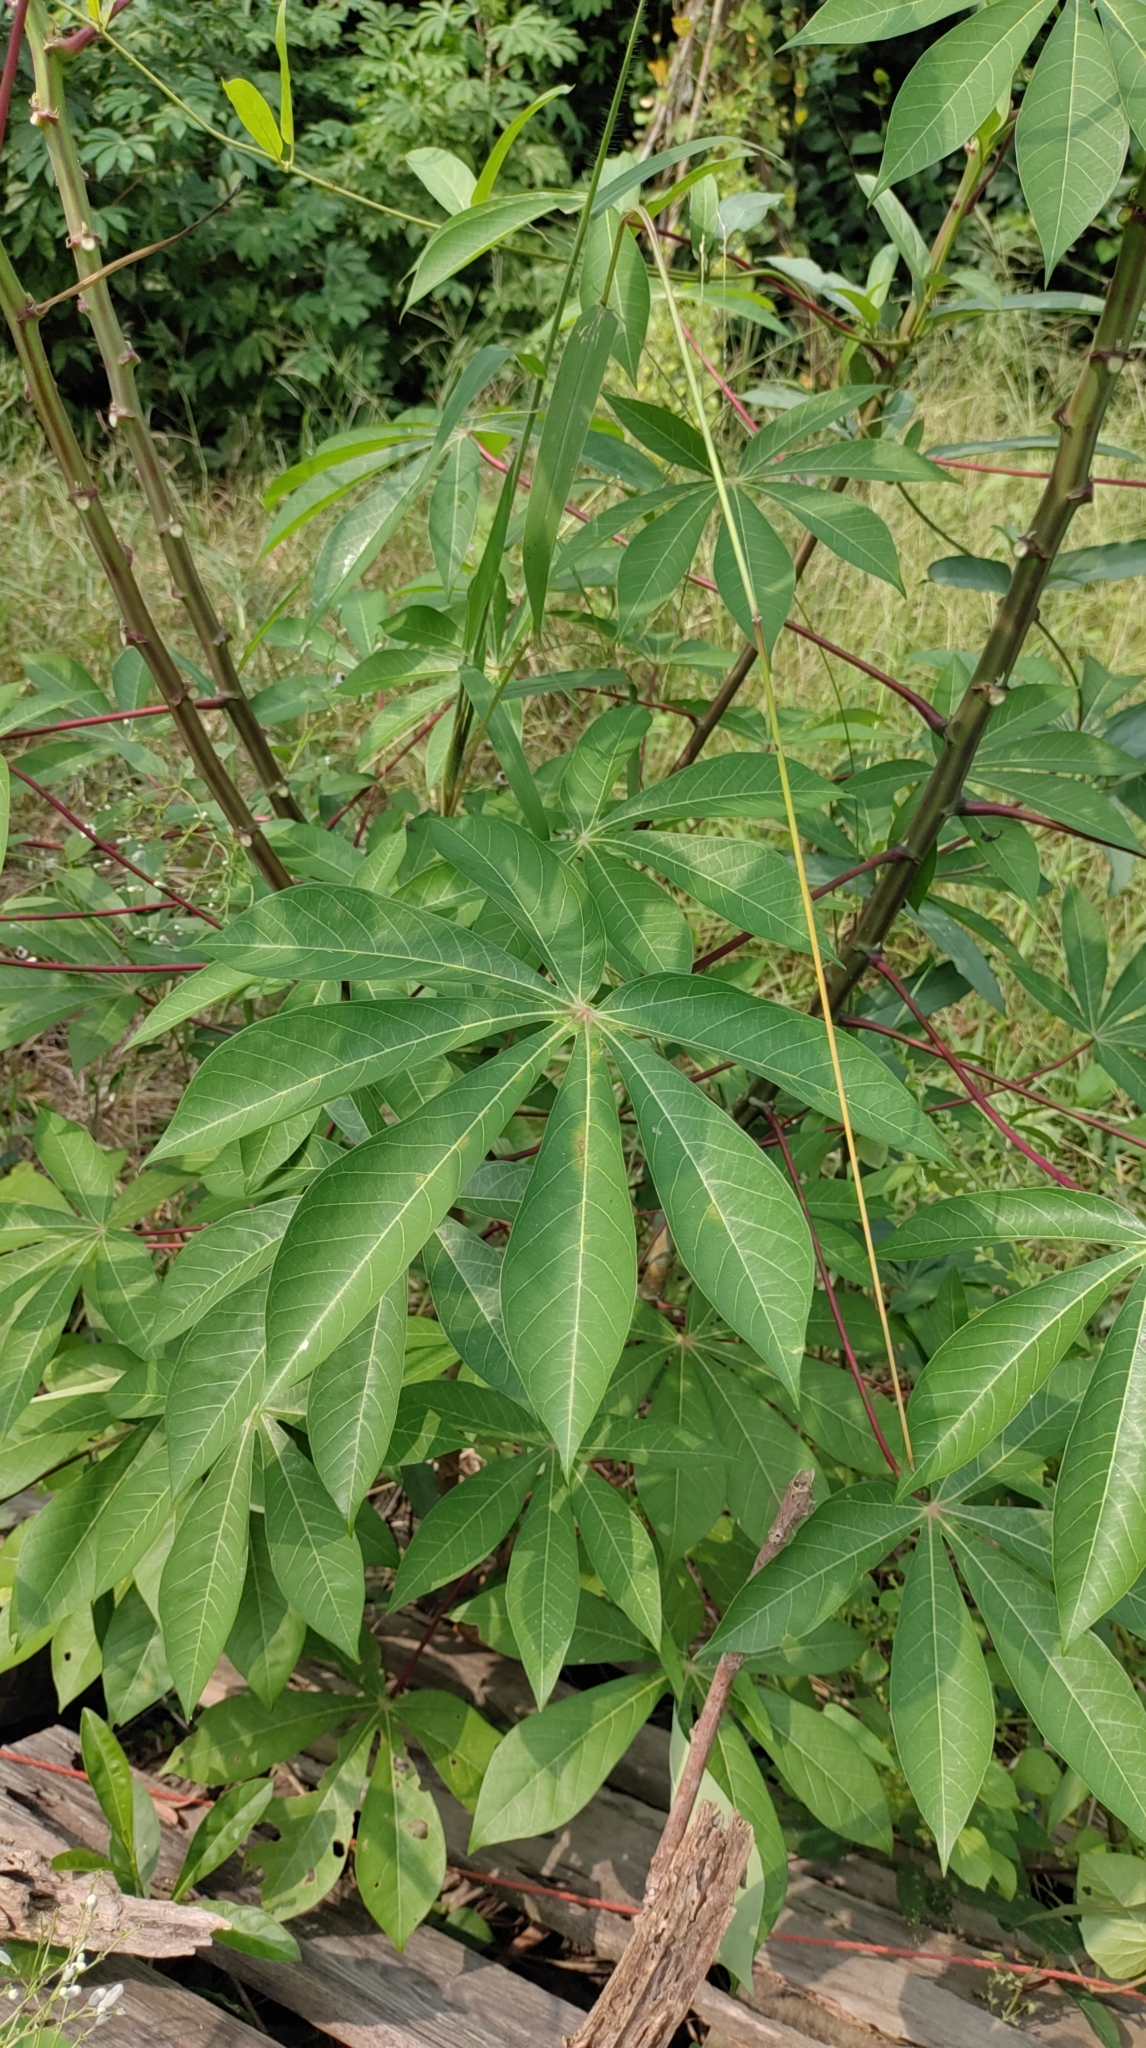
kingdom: Plantae
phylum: Tracheophyta
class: Magnoliopsida
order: Malpighiales
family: Euphorbiaceae
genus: Manihot
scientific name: Manihot esculenta
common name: Cassava
